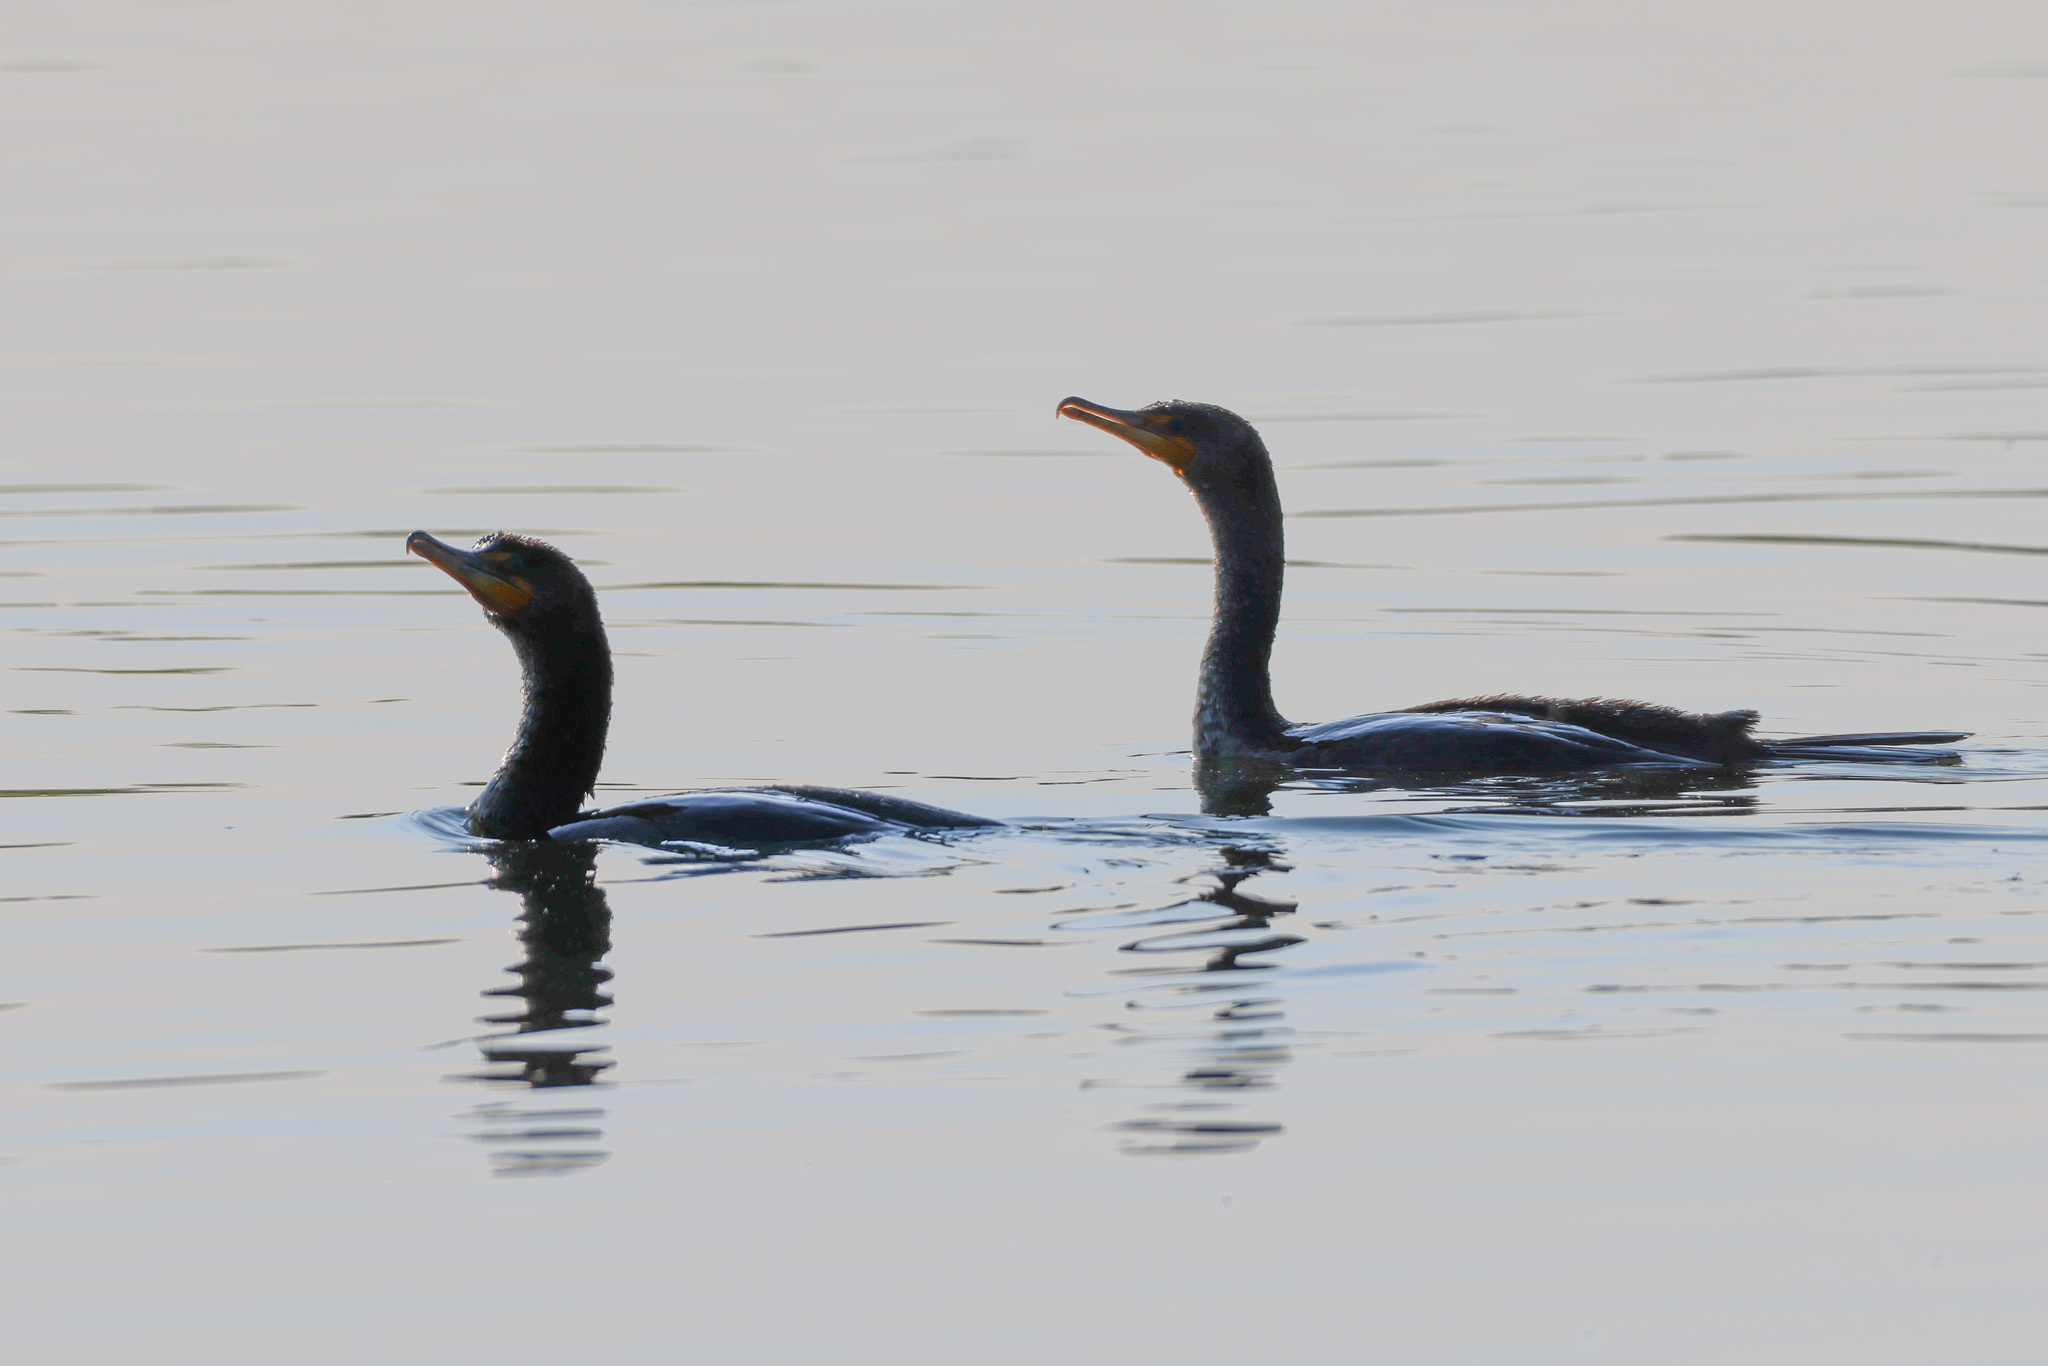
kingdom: Animalia
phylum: Chordata
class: Aves
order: Suliformes
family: Phalacrocoracidae
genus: Phalacrocorax
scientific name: Phalacrocorax auritus
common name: Double-crested cormorant
